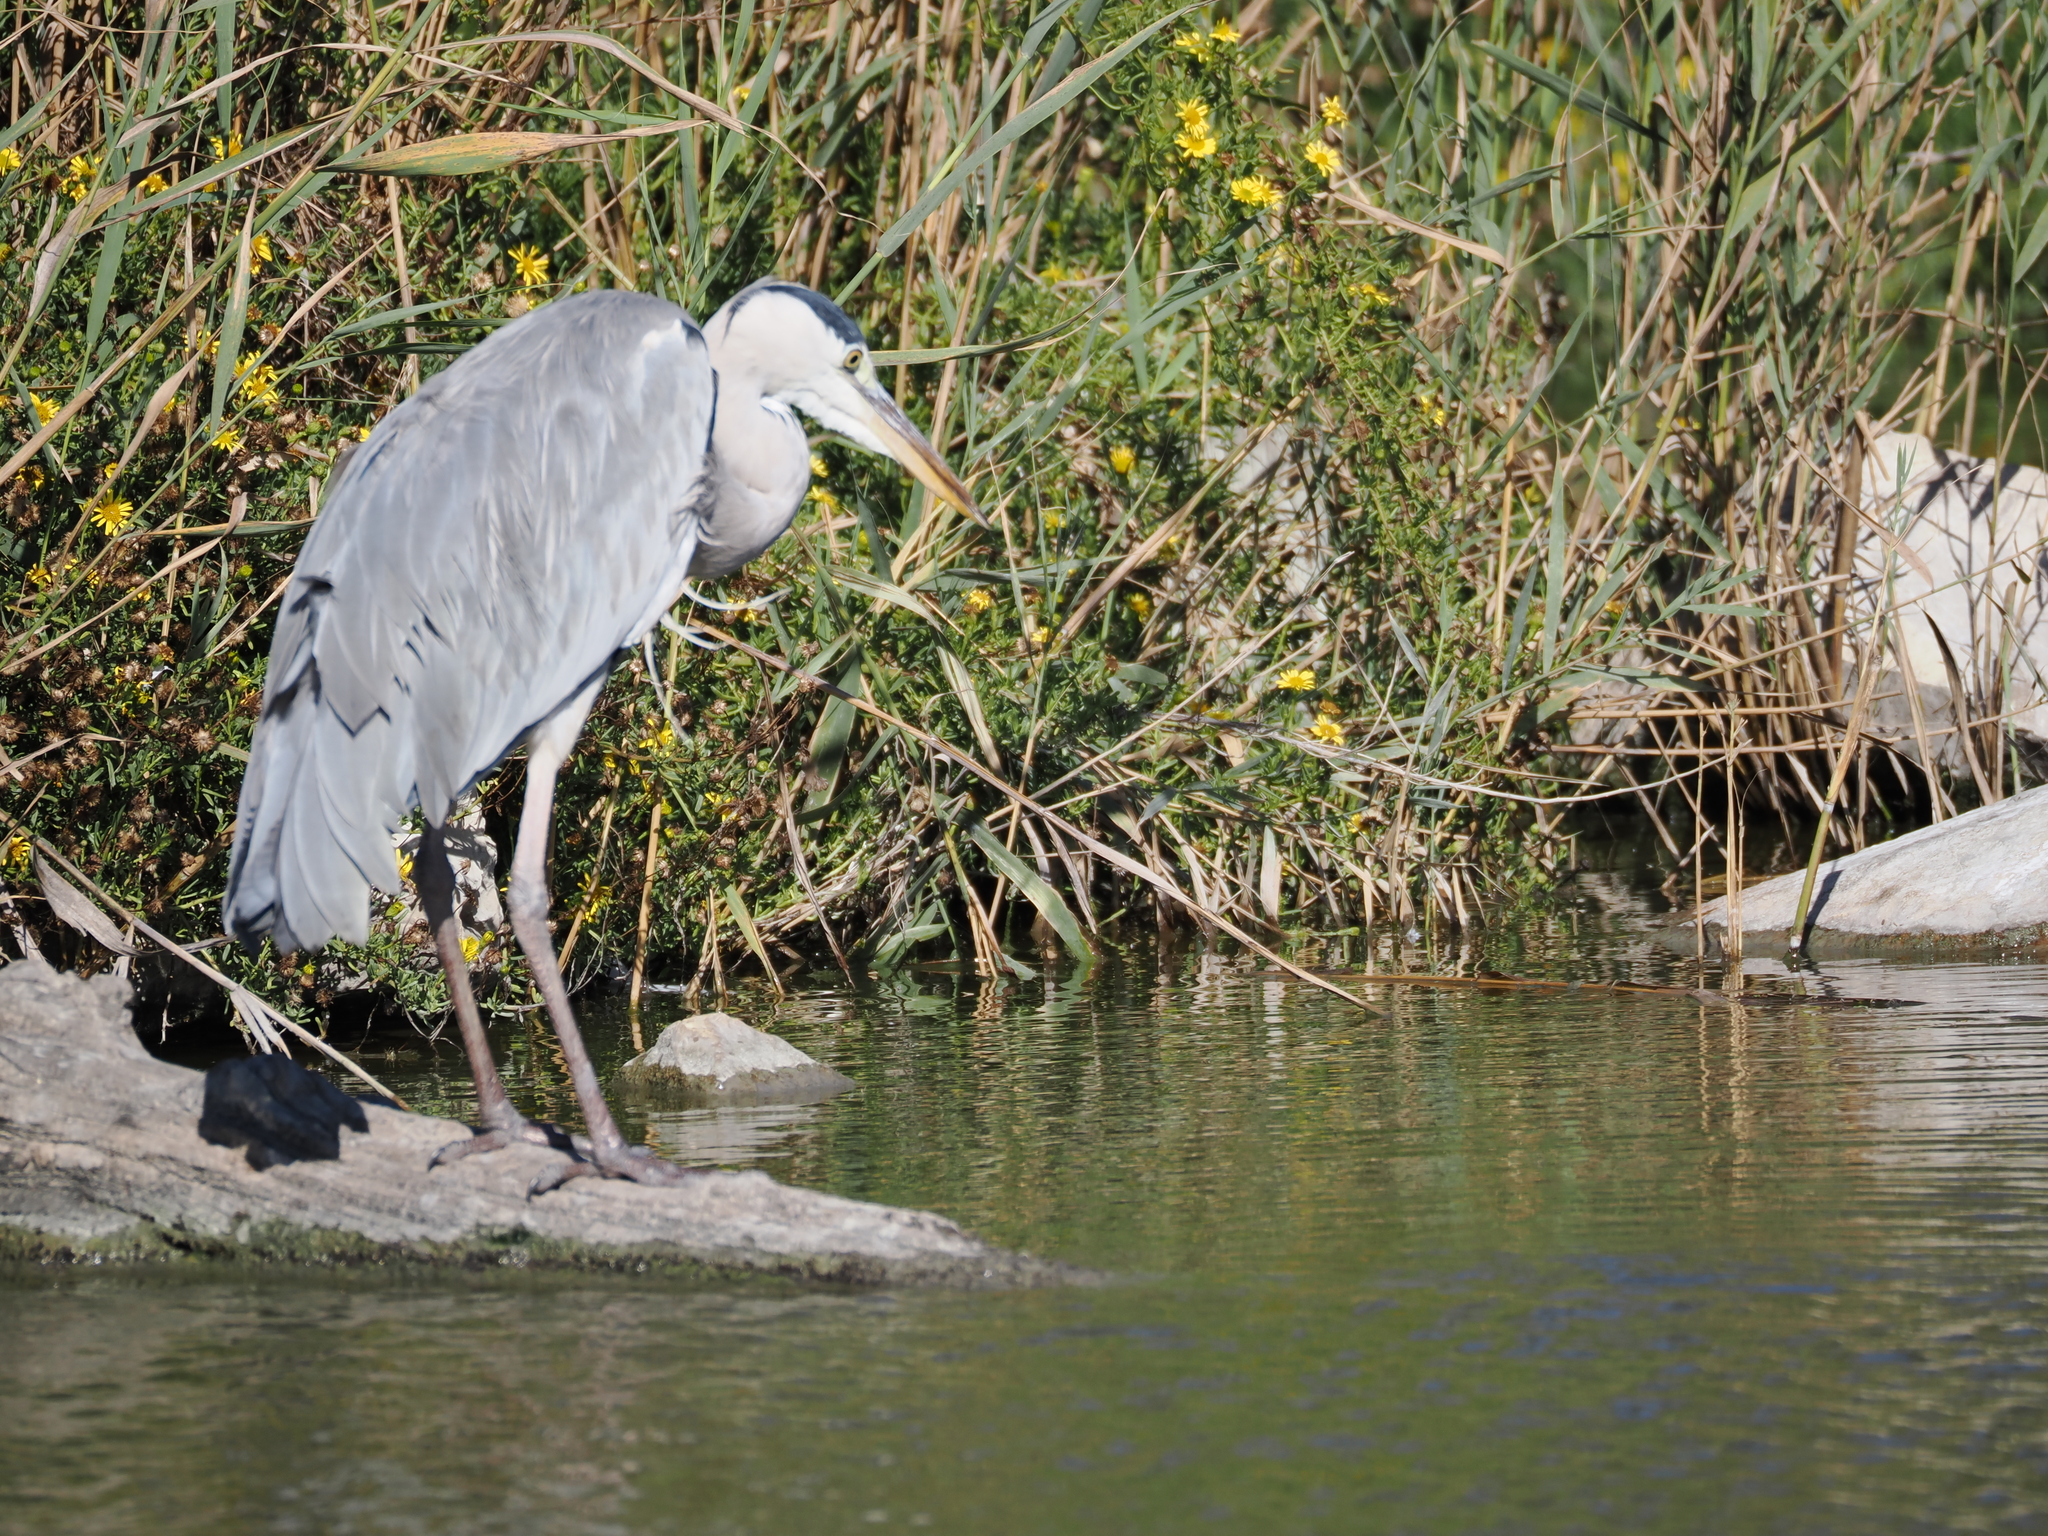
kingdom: Animalia
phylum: Chordata
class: Aves
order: Pelecaniformes
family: Ardeidae
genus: Ardea
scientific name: Ardea cinerea
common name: Grey heron
